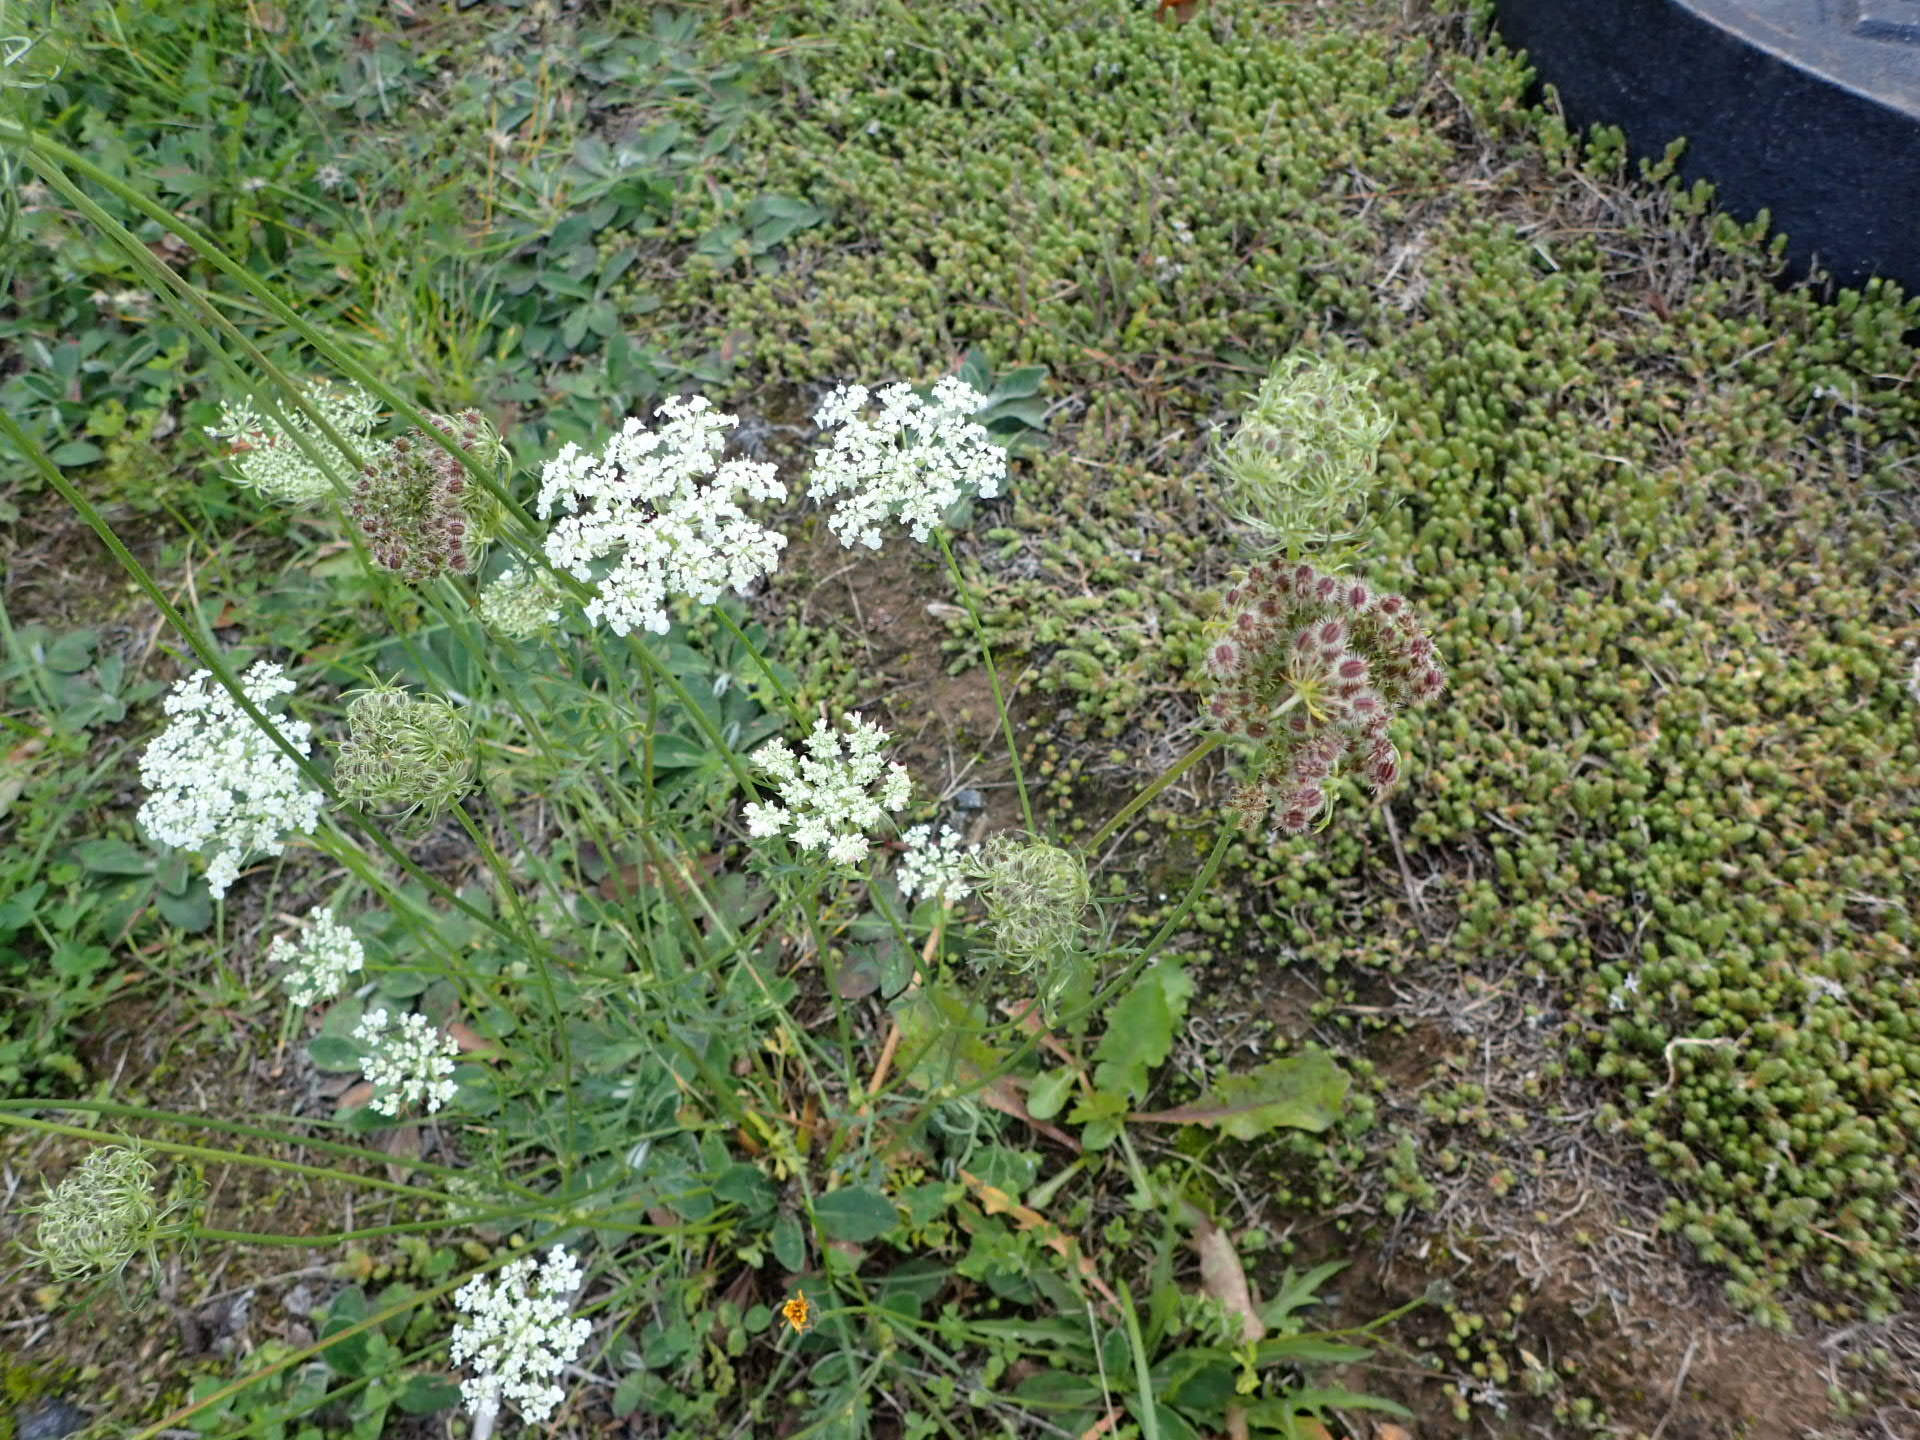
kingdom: Plantae
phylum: Tracheophyta
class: Magnoliopsida
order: Apiales
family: Apiaceae
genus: Daucus
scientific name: Daucus carota
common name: Wild carrot
